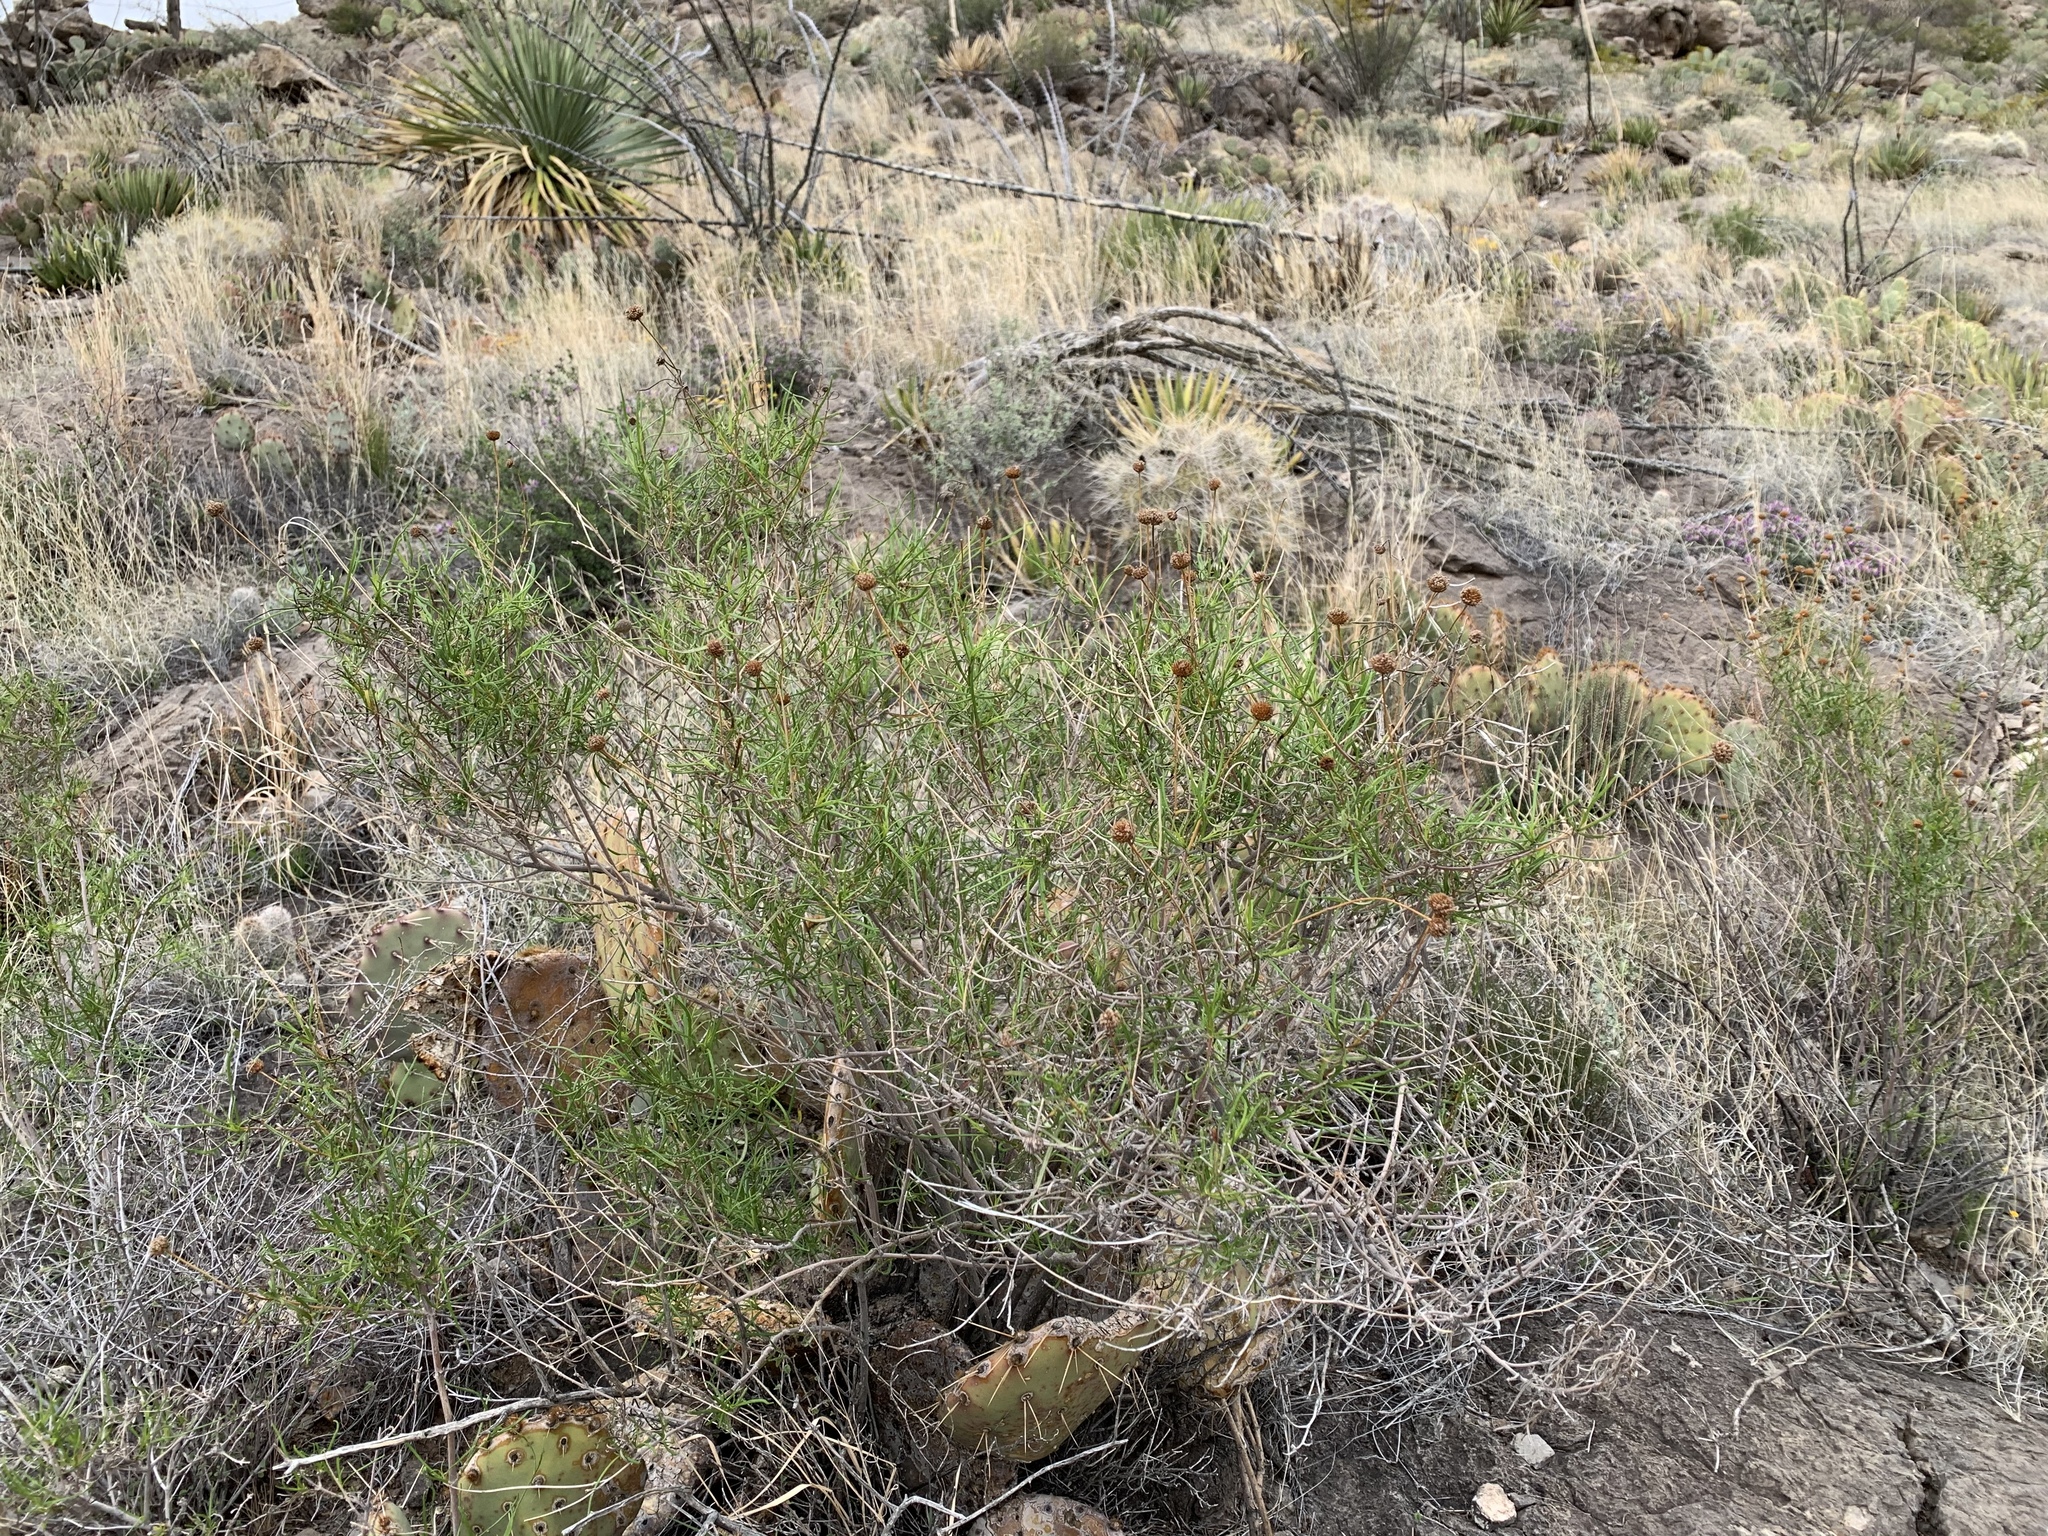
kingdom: Plantae
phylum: Tracheophyta
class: Magnoliopsida
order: Asterales
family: Asteraceae
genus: Sidneya
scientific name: Sidneya tenuifolia
